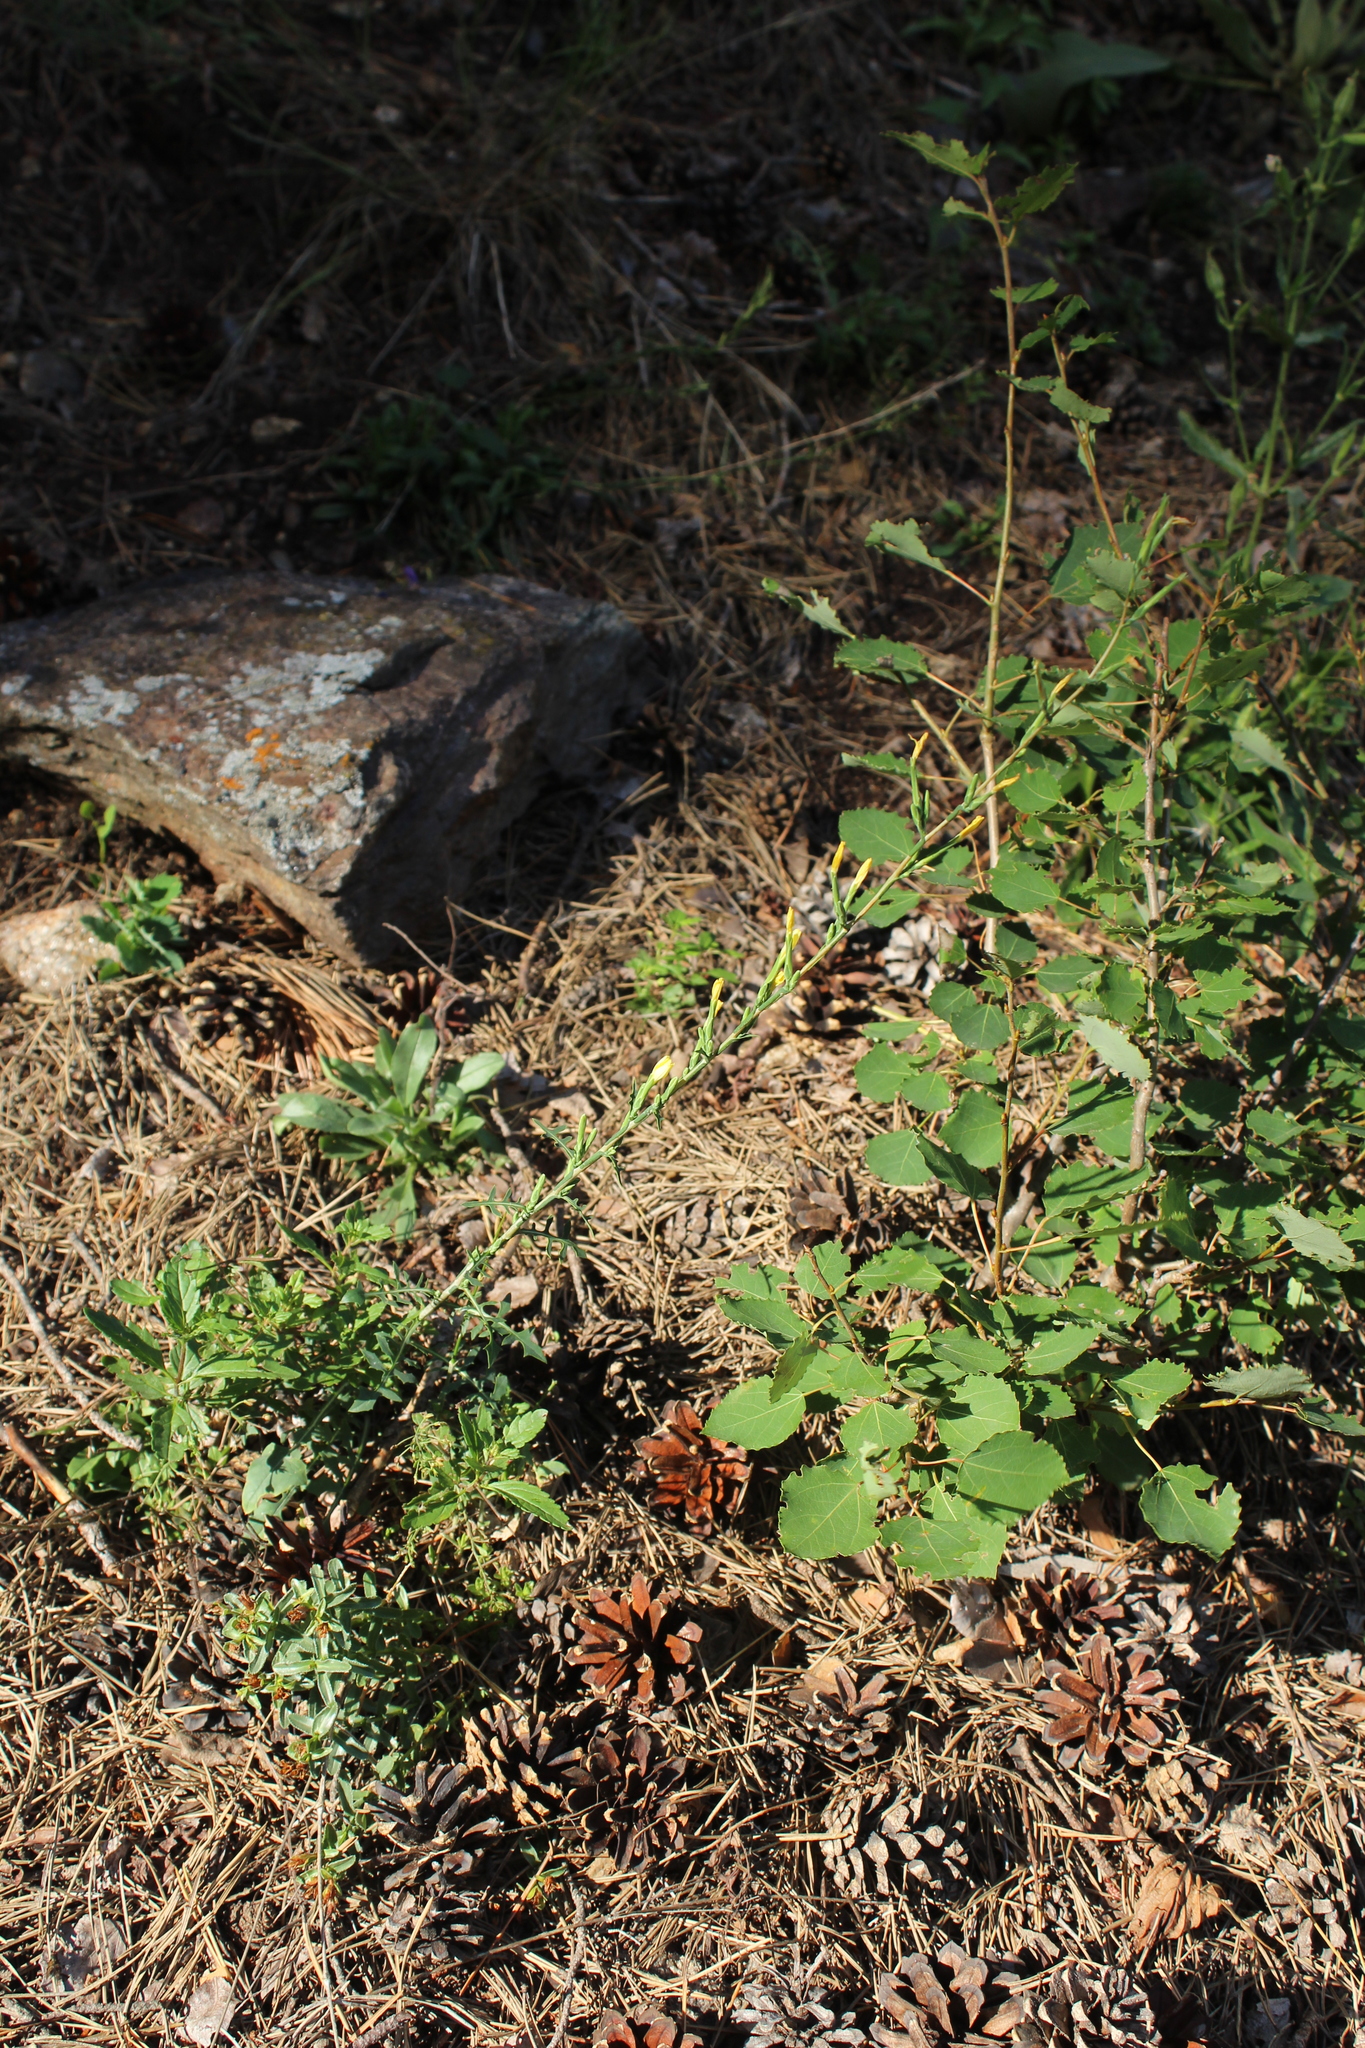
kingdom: Plantae
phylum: Tracheophyta
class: Magnoliopsida
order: Asterales
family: Asteraceae
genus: Lactuca
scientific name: Lactuca viminea
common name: Pliant lettuce
